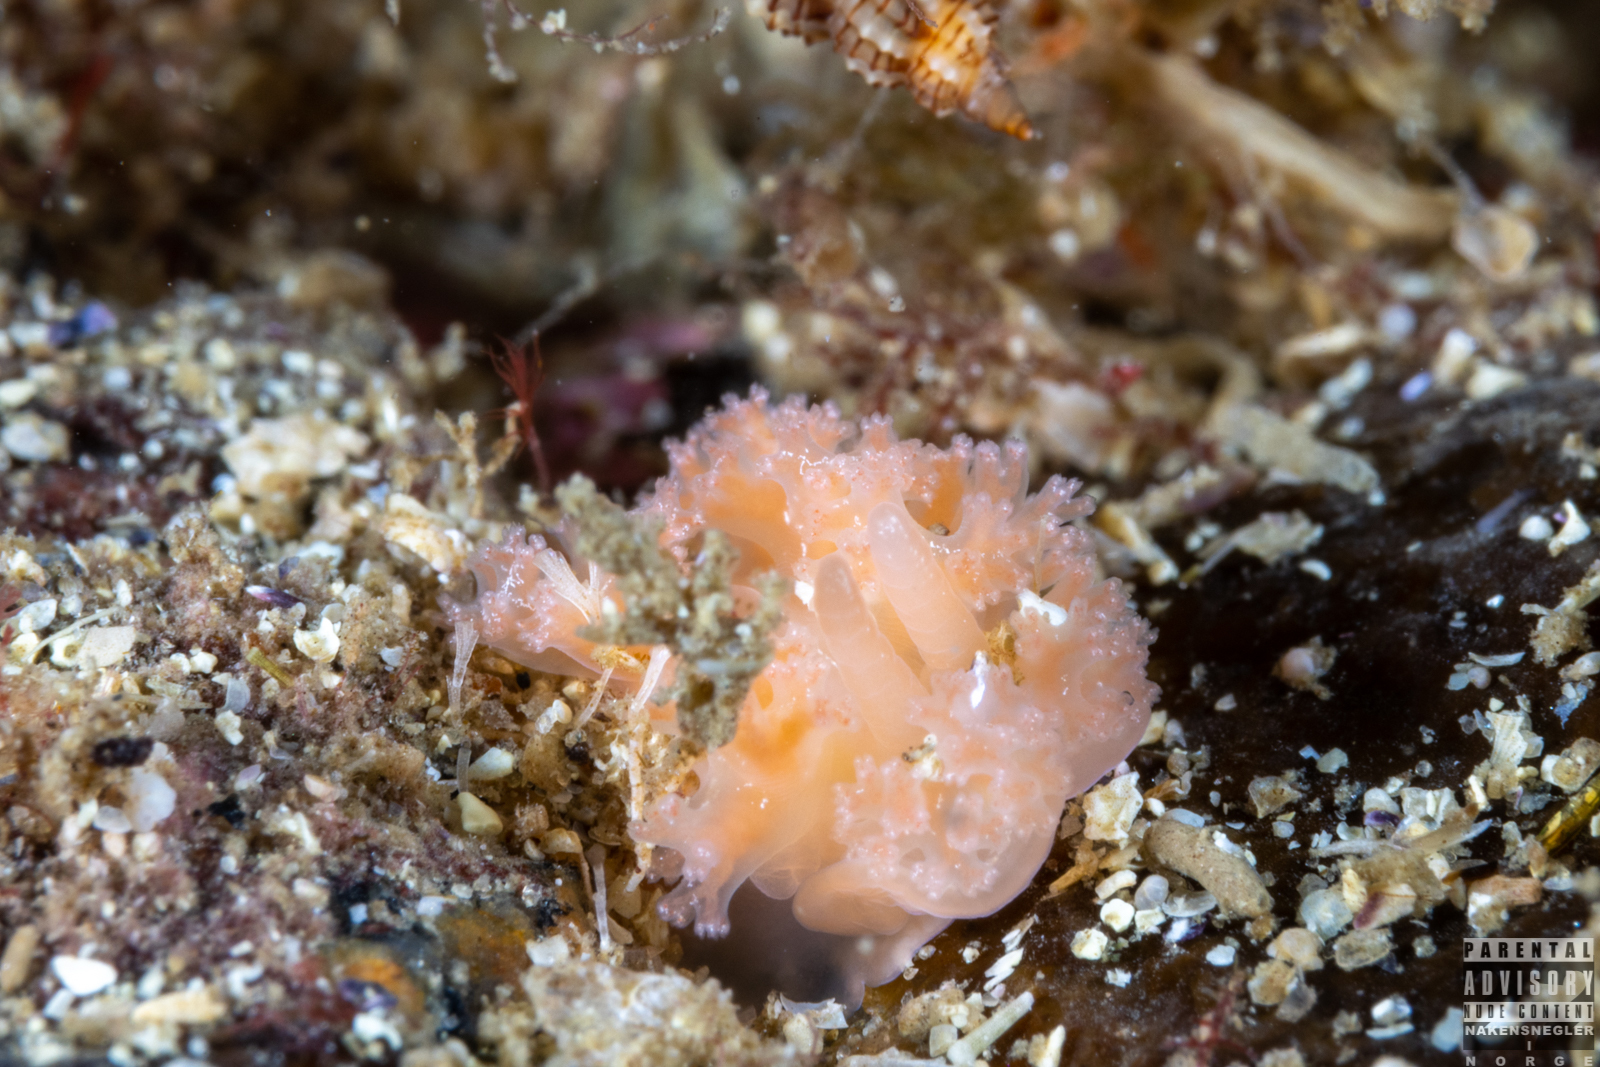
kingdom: Animalia
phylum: Mollusca
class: Gastropoda
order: Nudibranchia
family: Heroidae
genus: Hero
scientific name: Hero formosa
